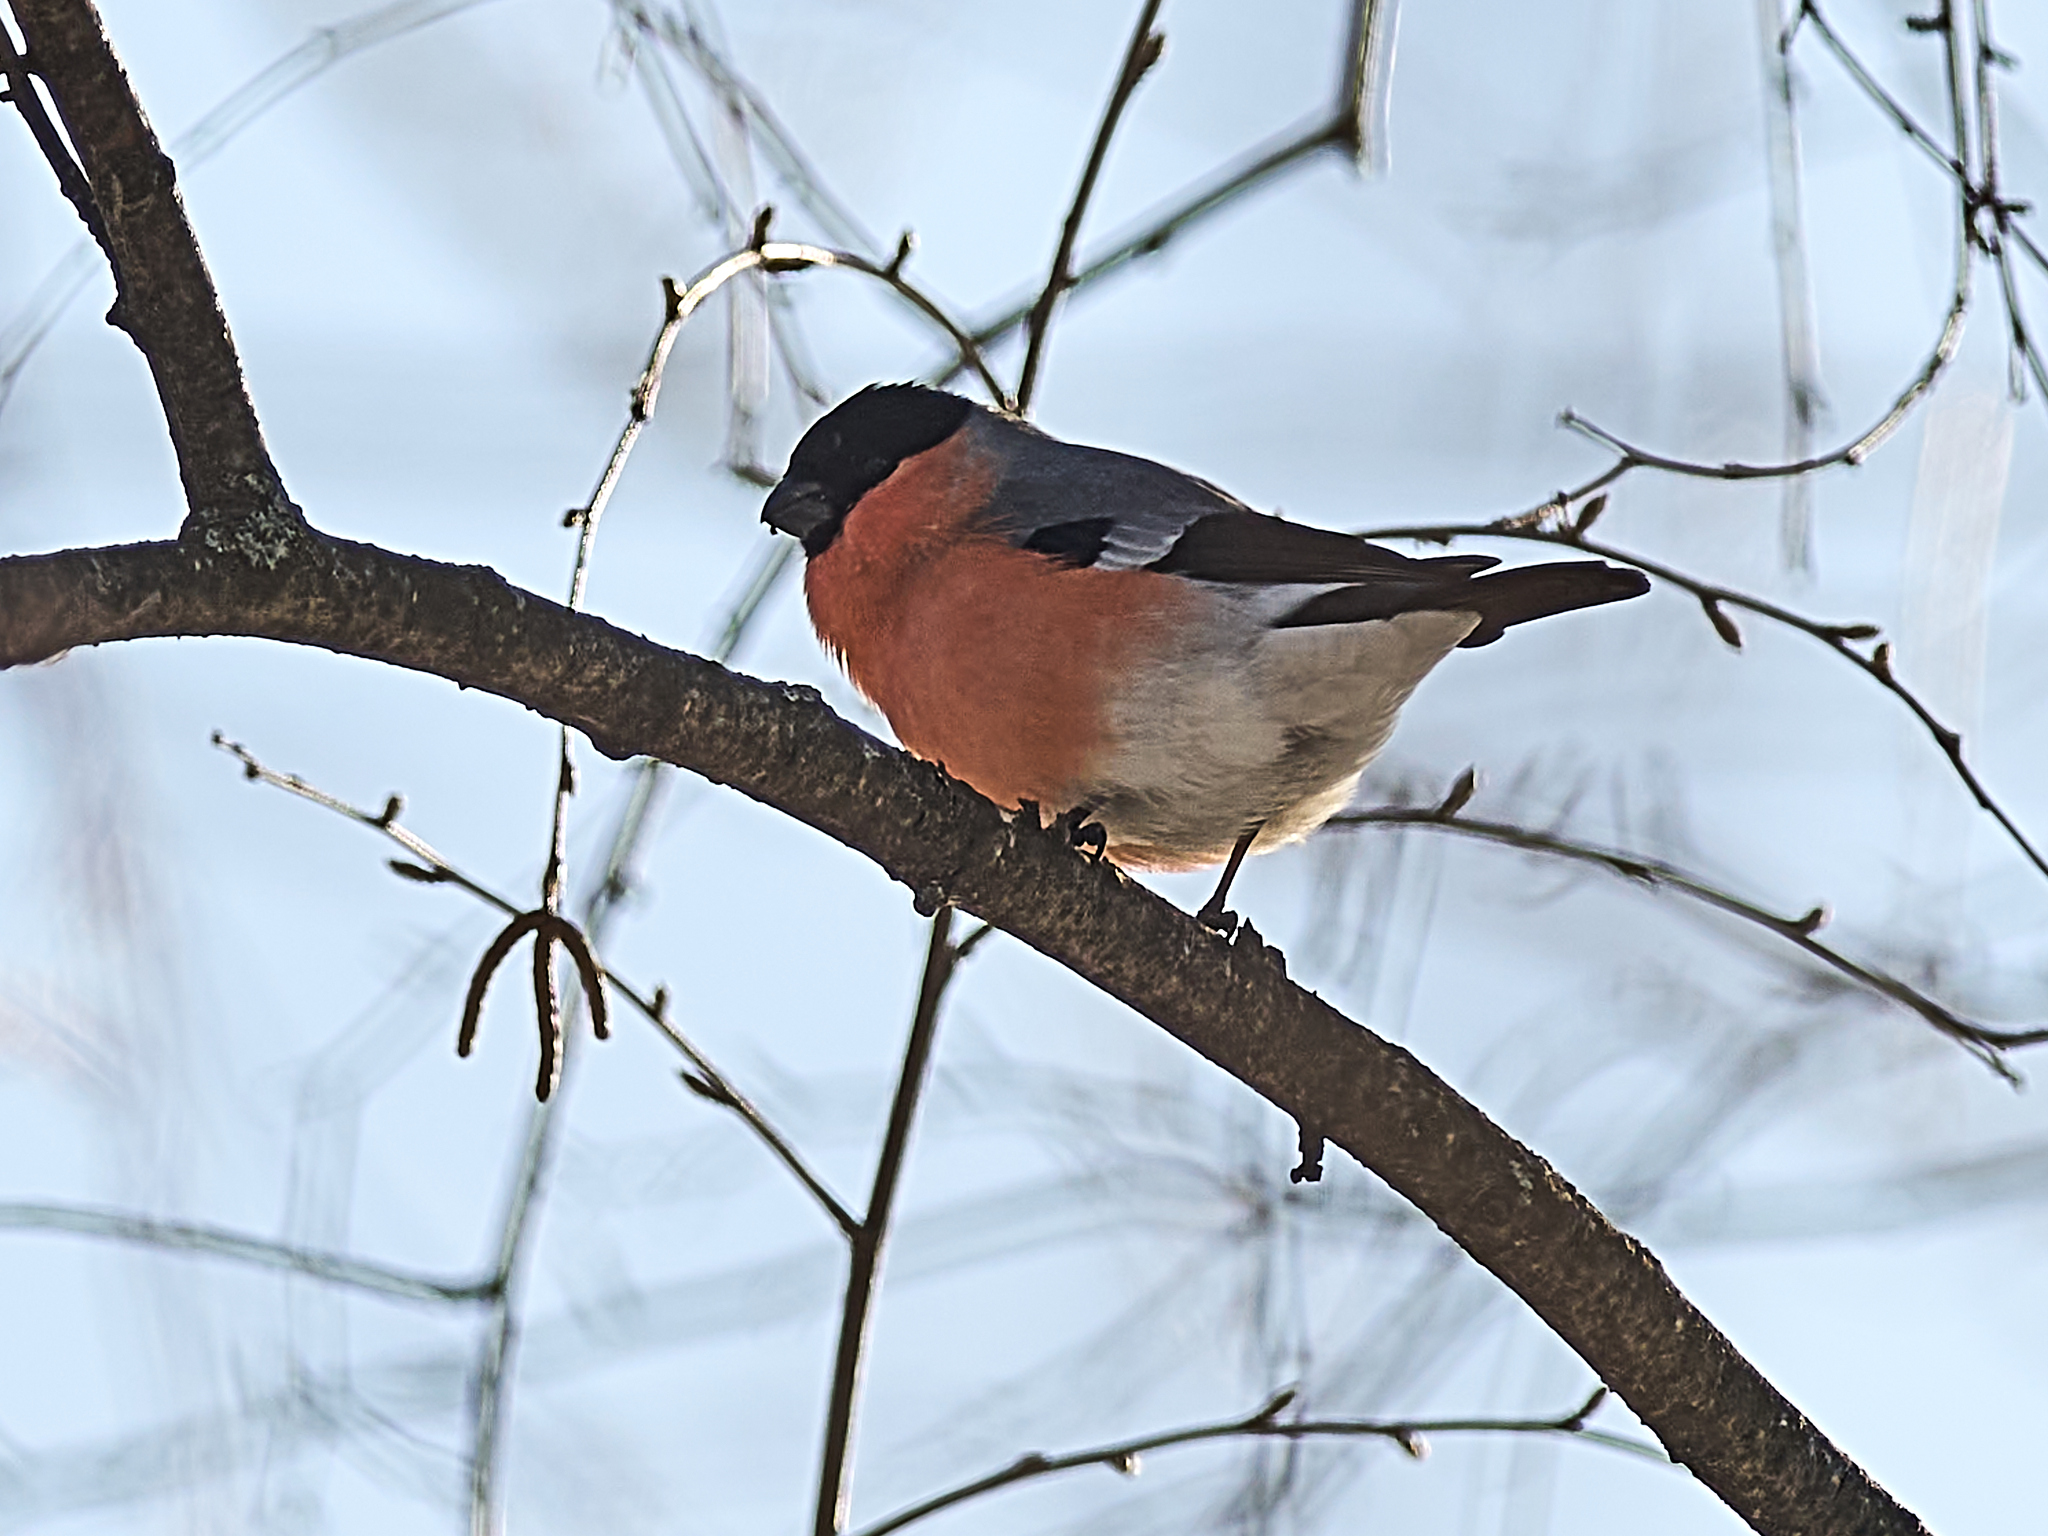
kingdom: Animalia
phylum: Chordata
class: Aves
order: Passeriformes
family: Fringillidae
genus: Pyrrhula
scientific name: Pyrrhula pyrrhula
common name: Eurasian bullfinch
